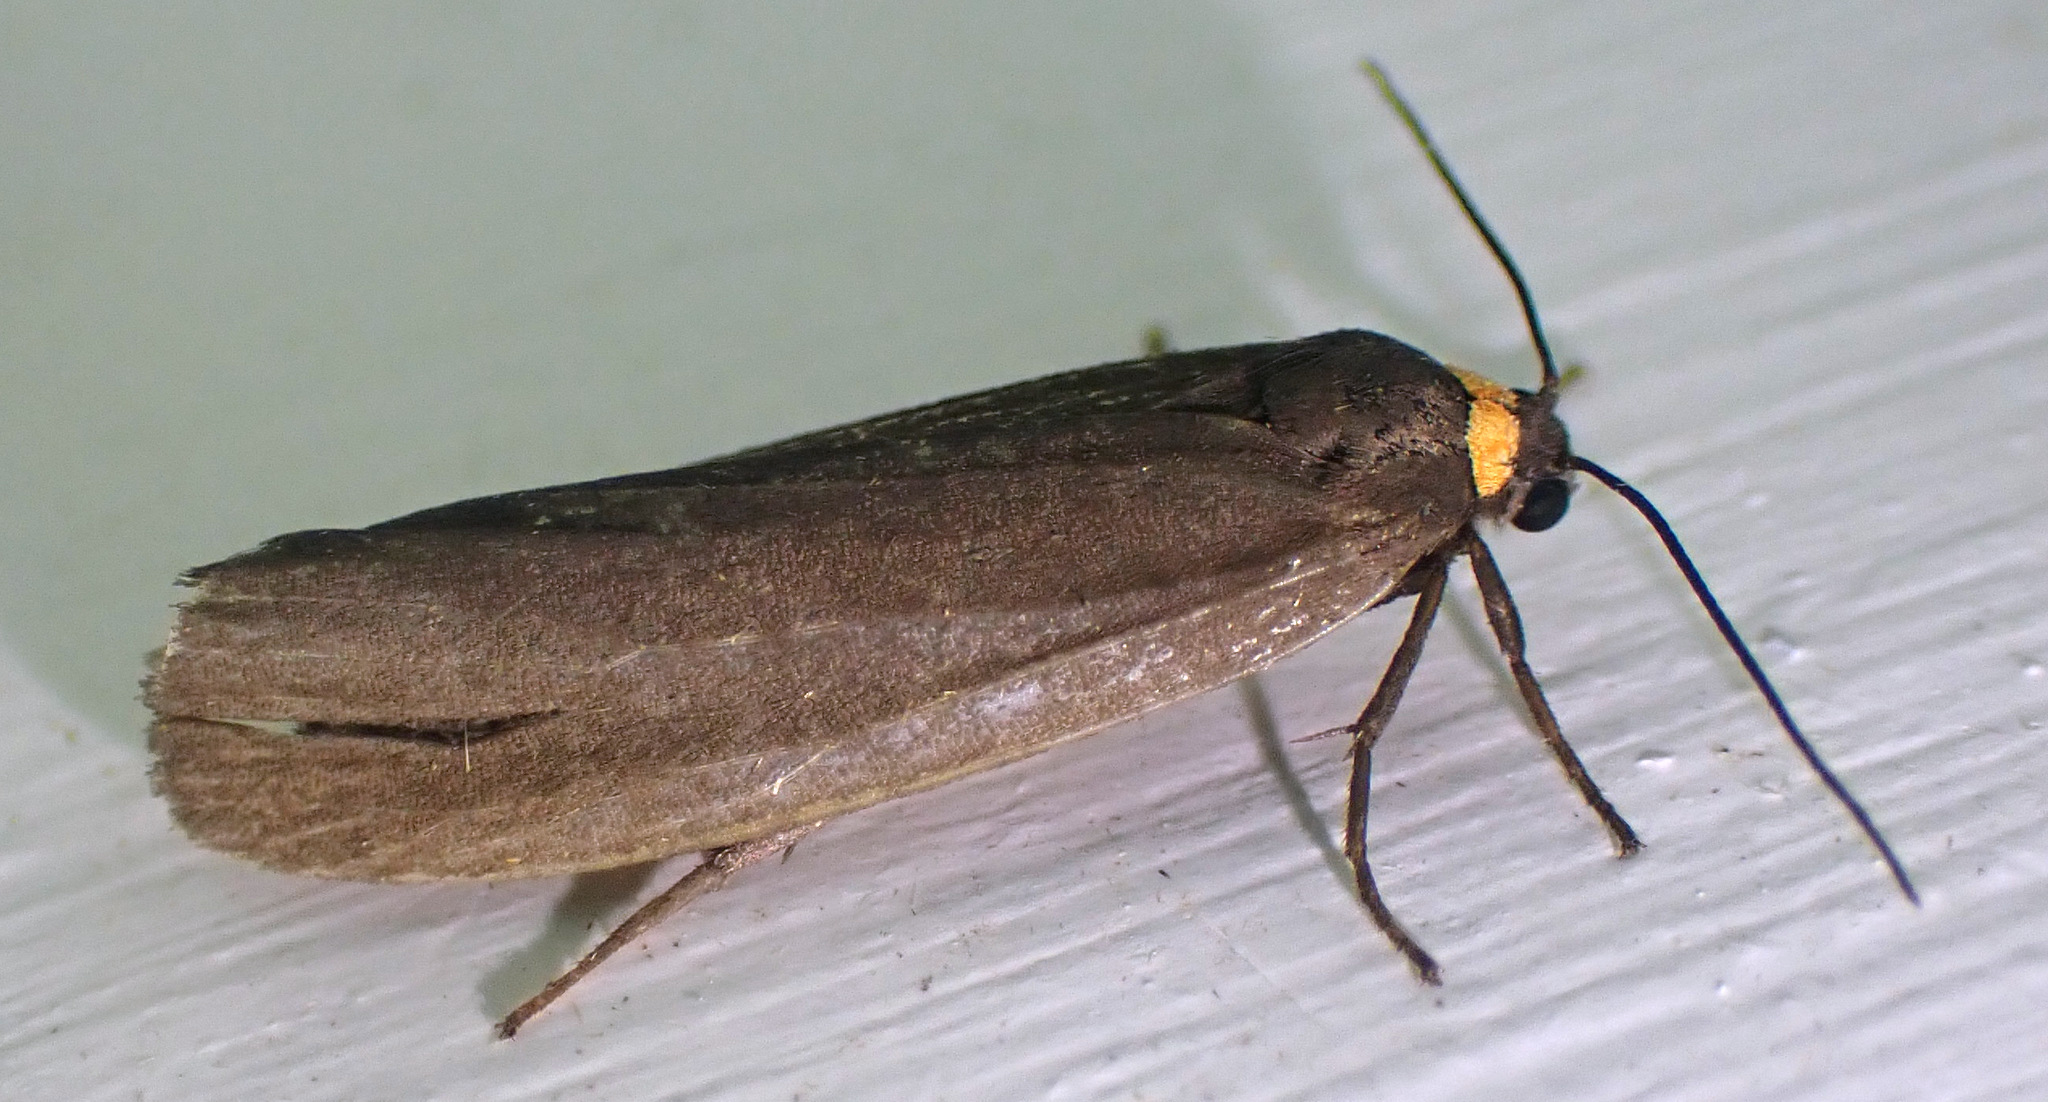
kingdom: Animalia
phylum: Arthropoda
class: Insecta
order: Lepidoptera
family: Erebidae
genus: Atolmis
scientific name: Atolmis rubricollis
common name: Red-necked footman
